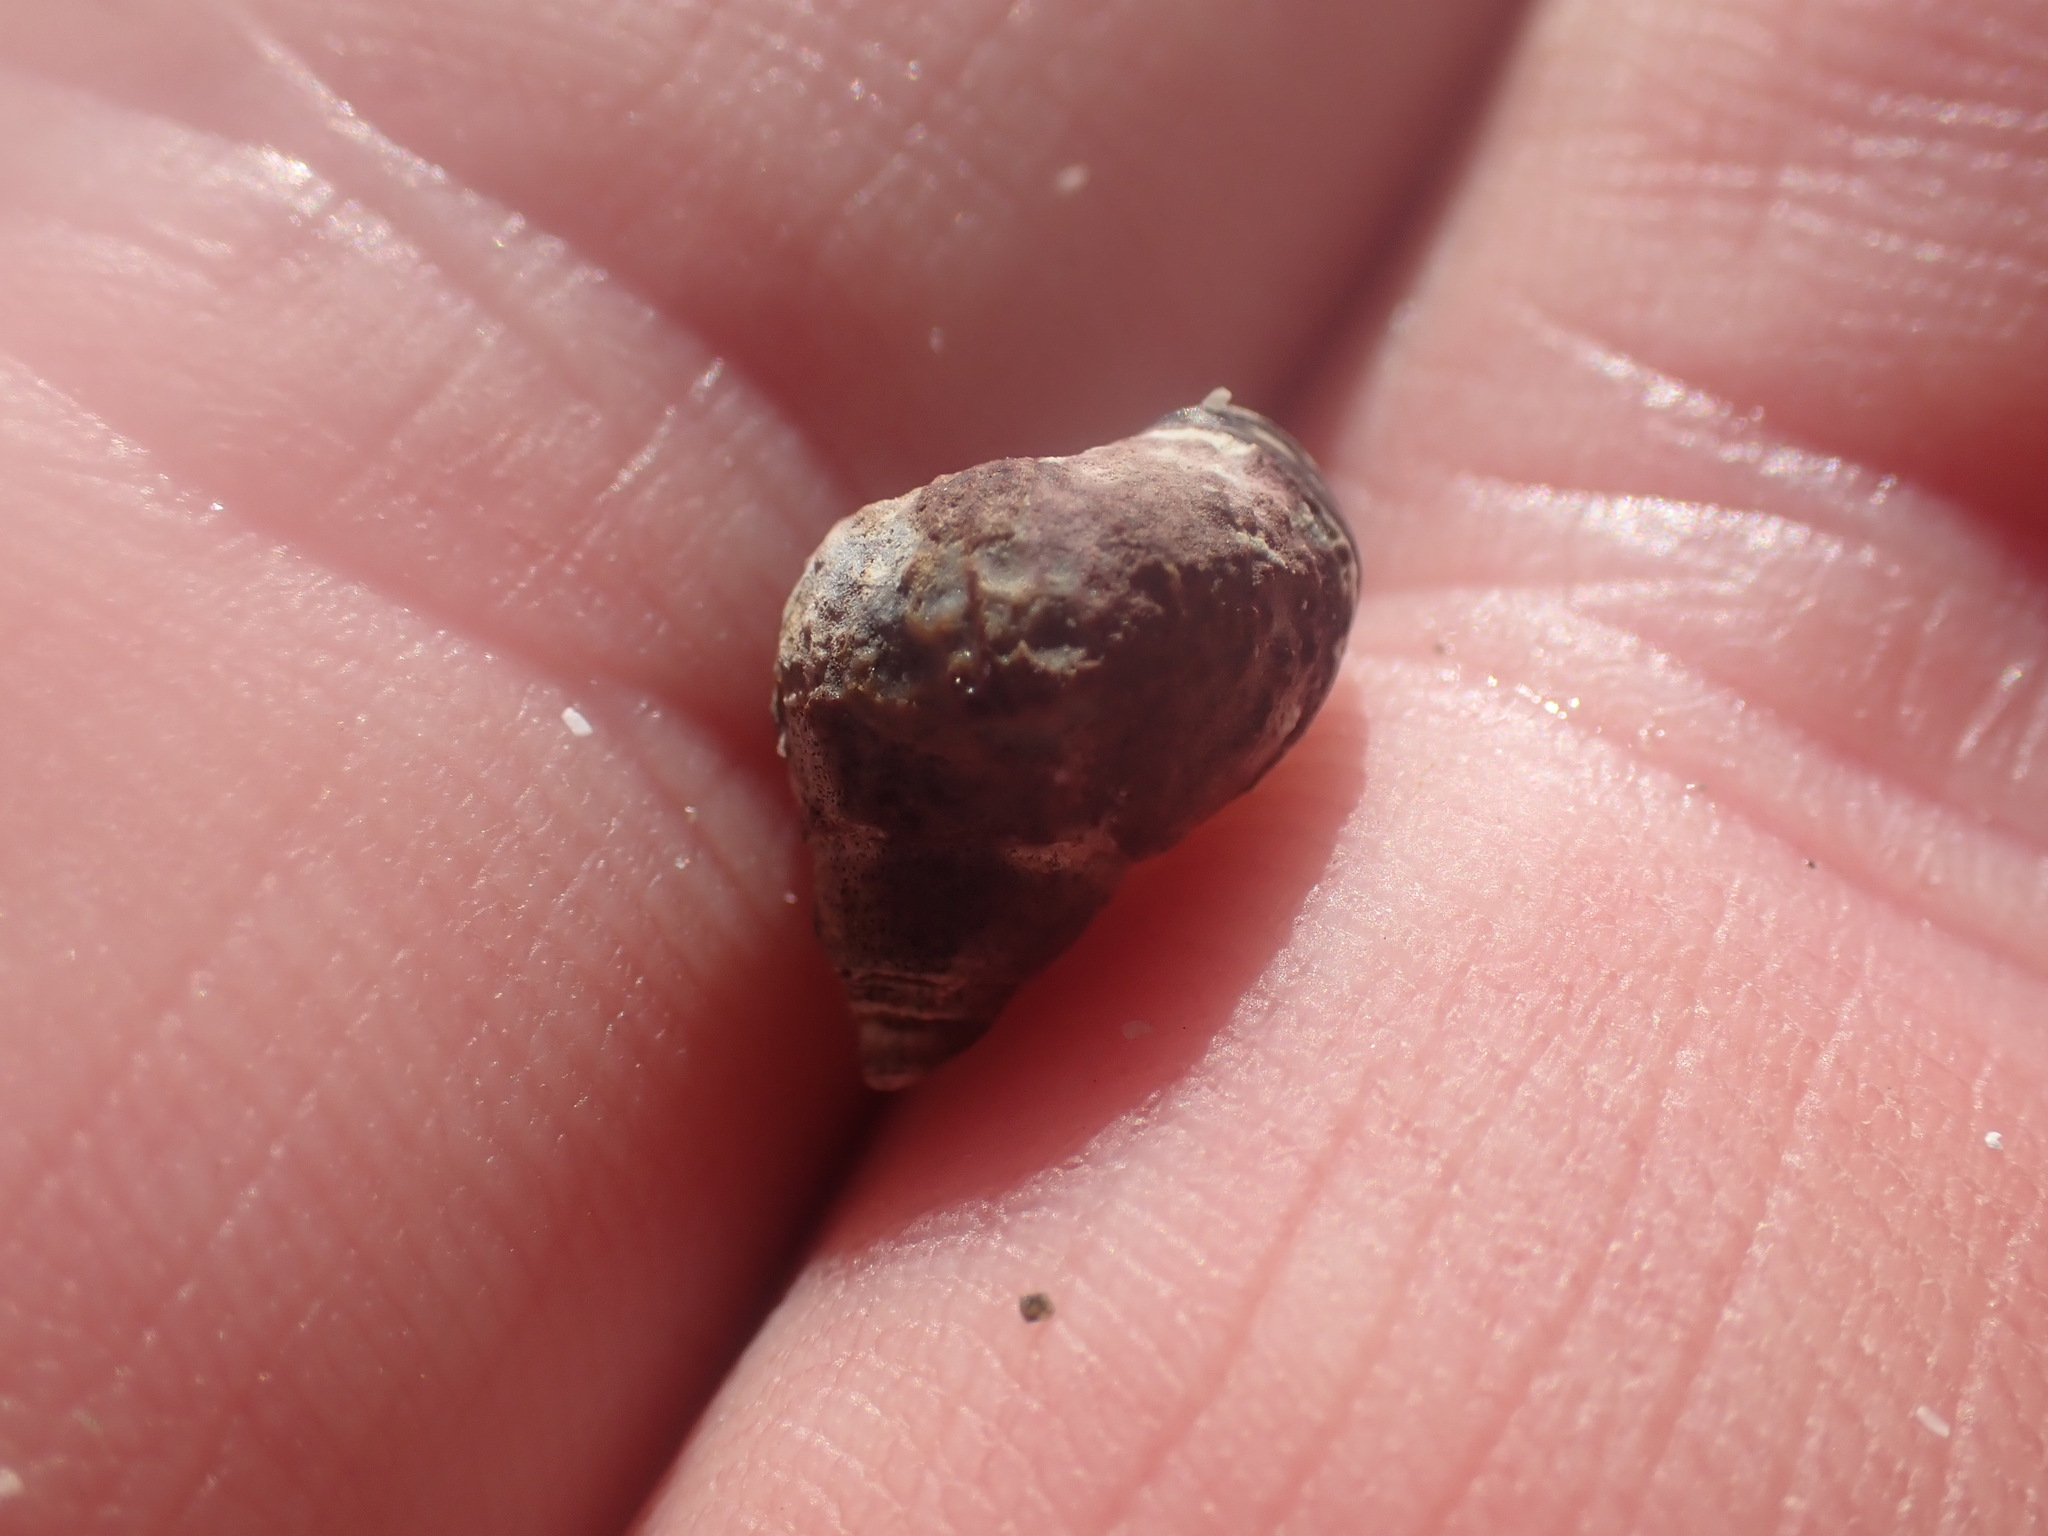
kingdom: Animalia
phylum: Mollusca
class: Gastropoda
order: Littorinimorpha
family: Littorinidae
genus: Littorina
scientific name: Littorina scutulata
